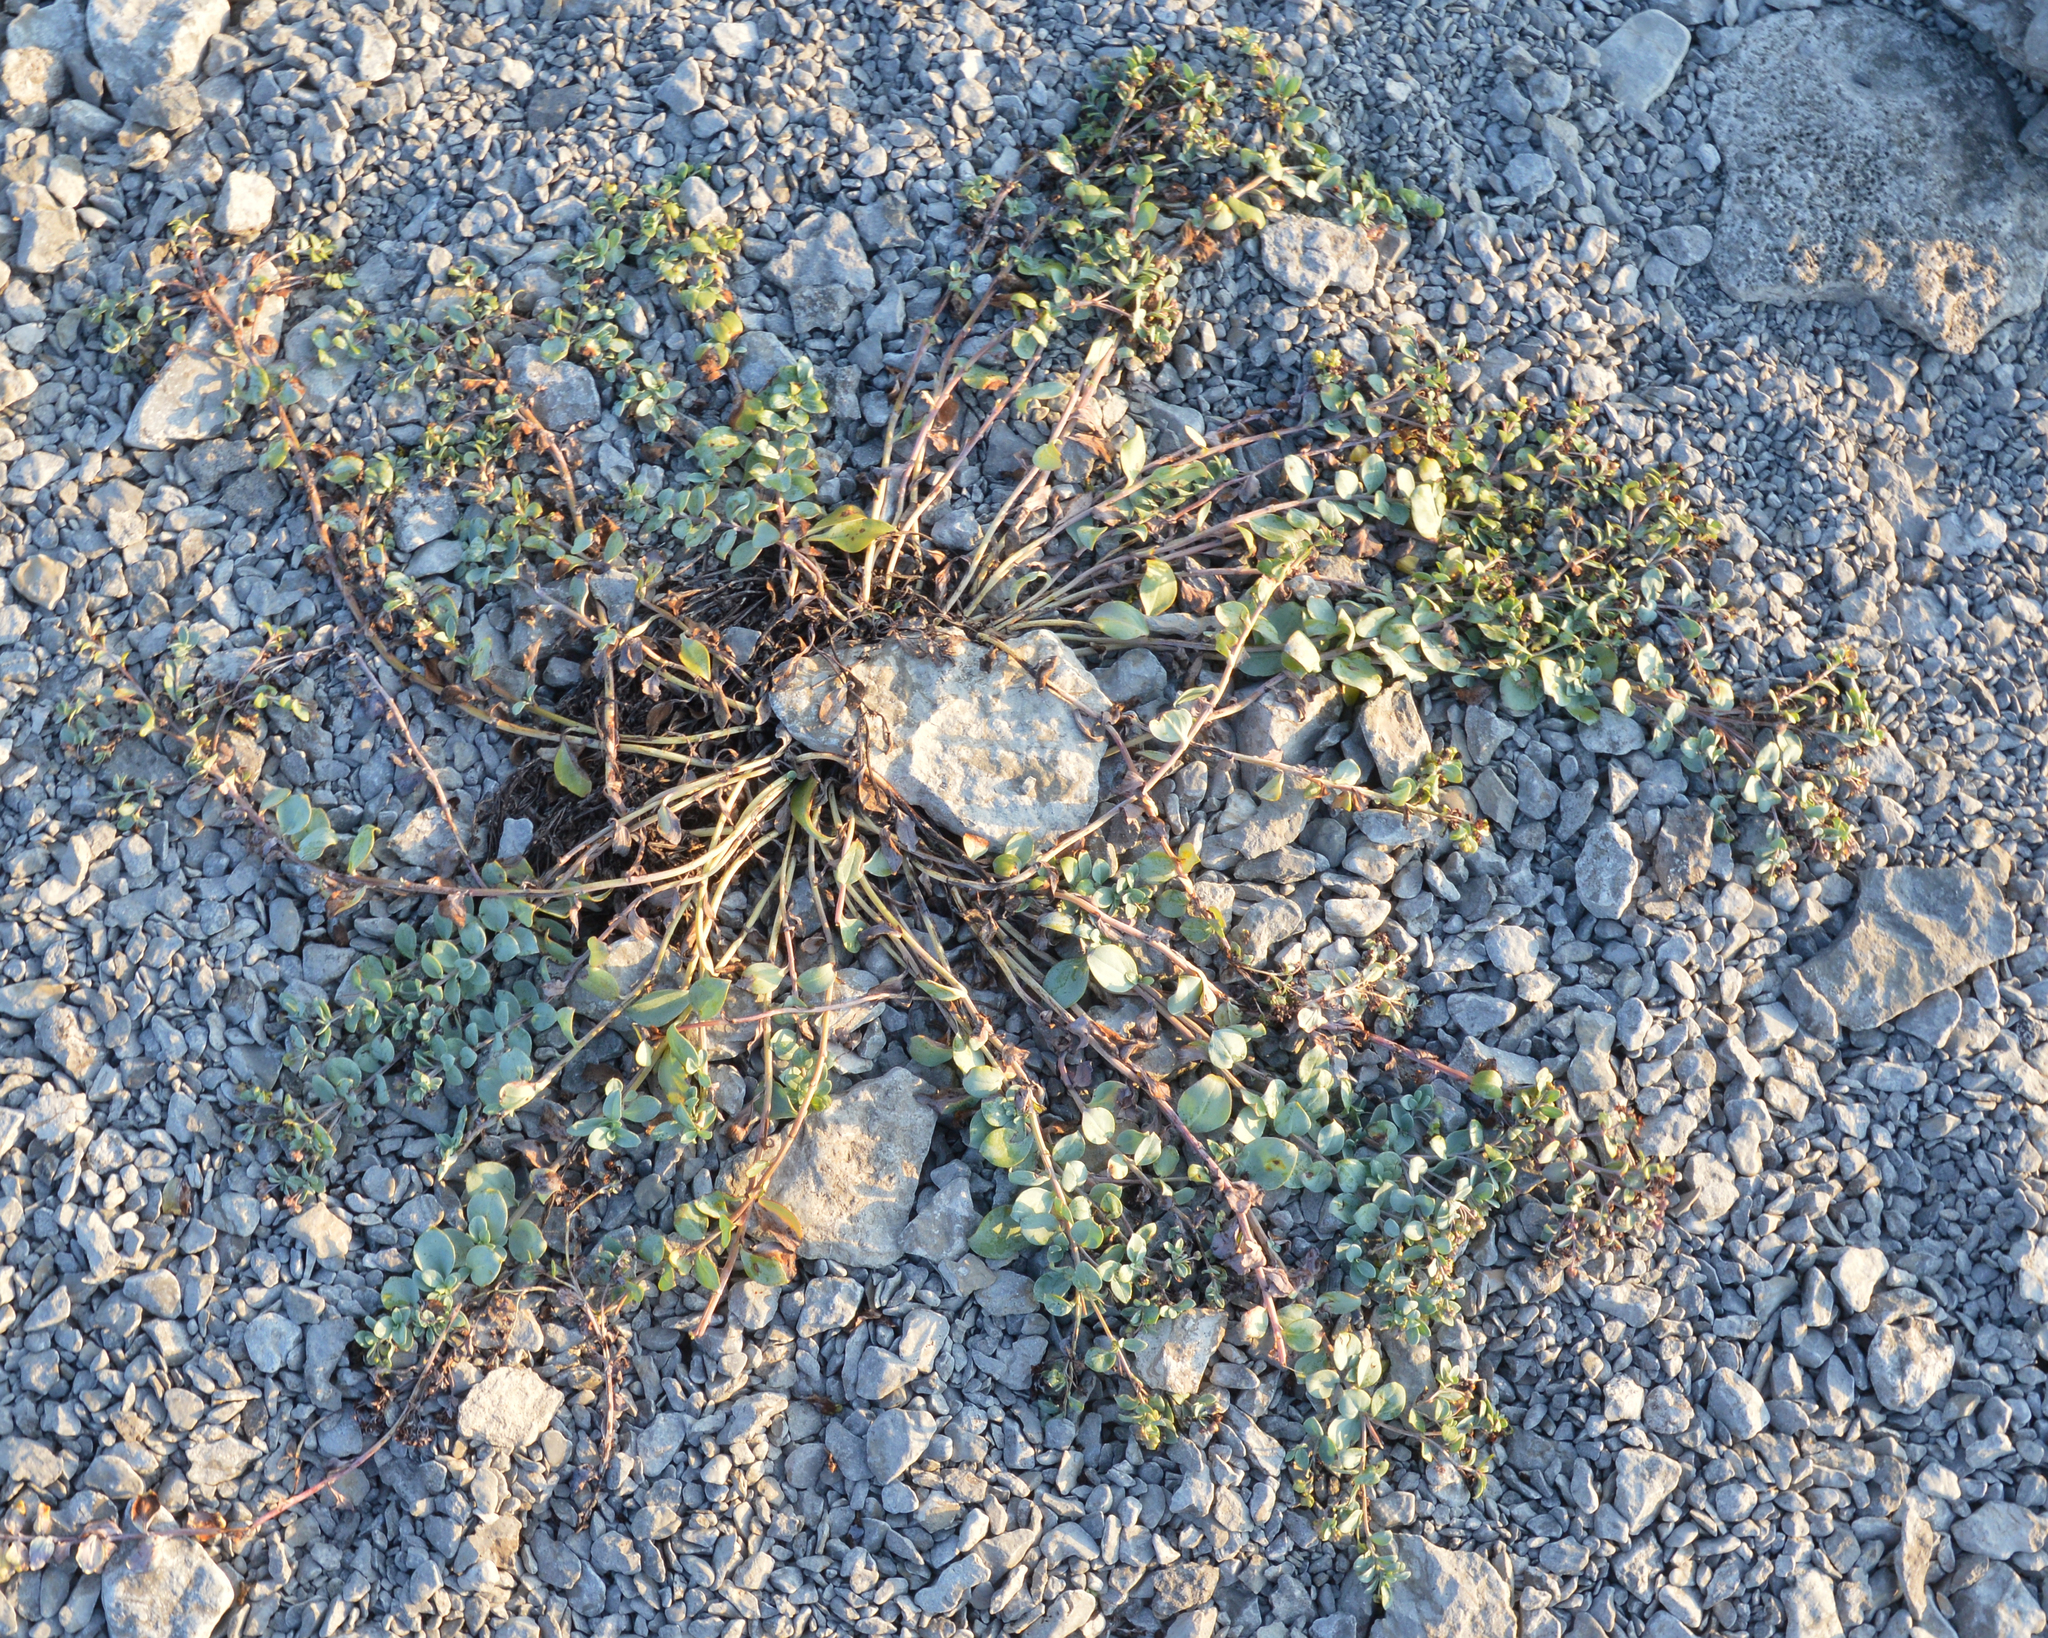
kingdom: Plantae
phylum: Tracheophyta
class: Magnoliopsida
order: Boraginales
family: Boraginaceae
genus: Mertensia
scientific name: Mertensia maritima
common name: Oysterplant
